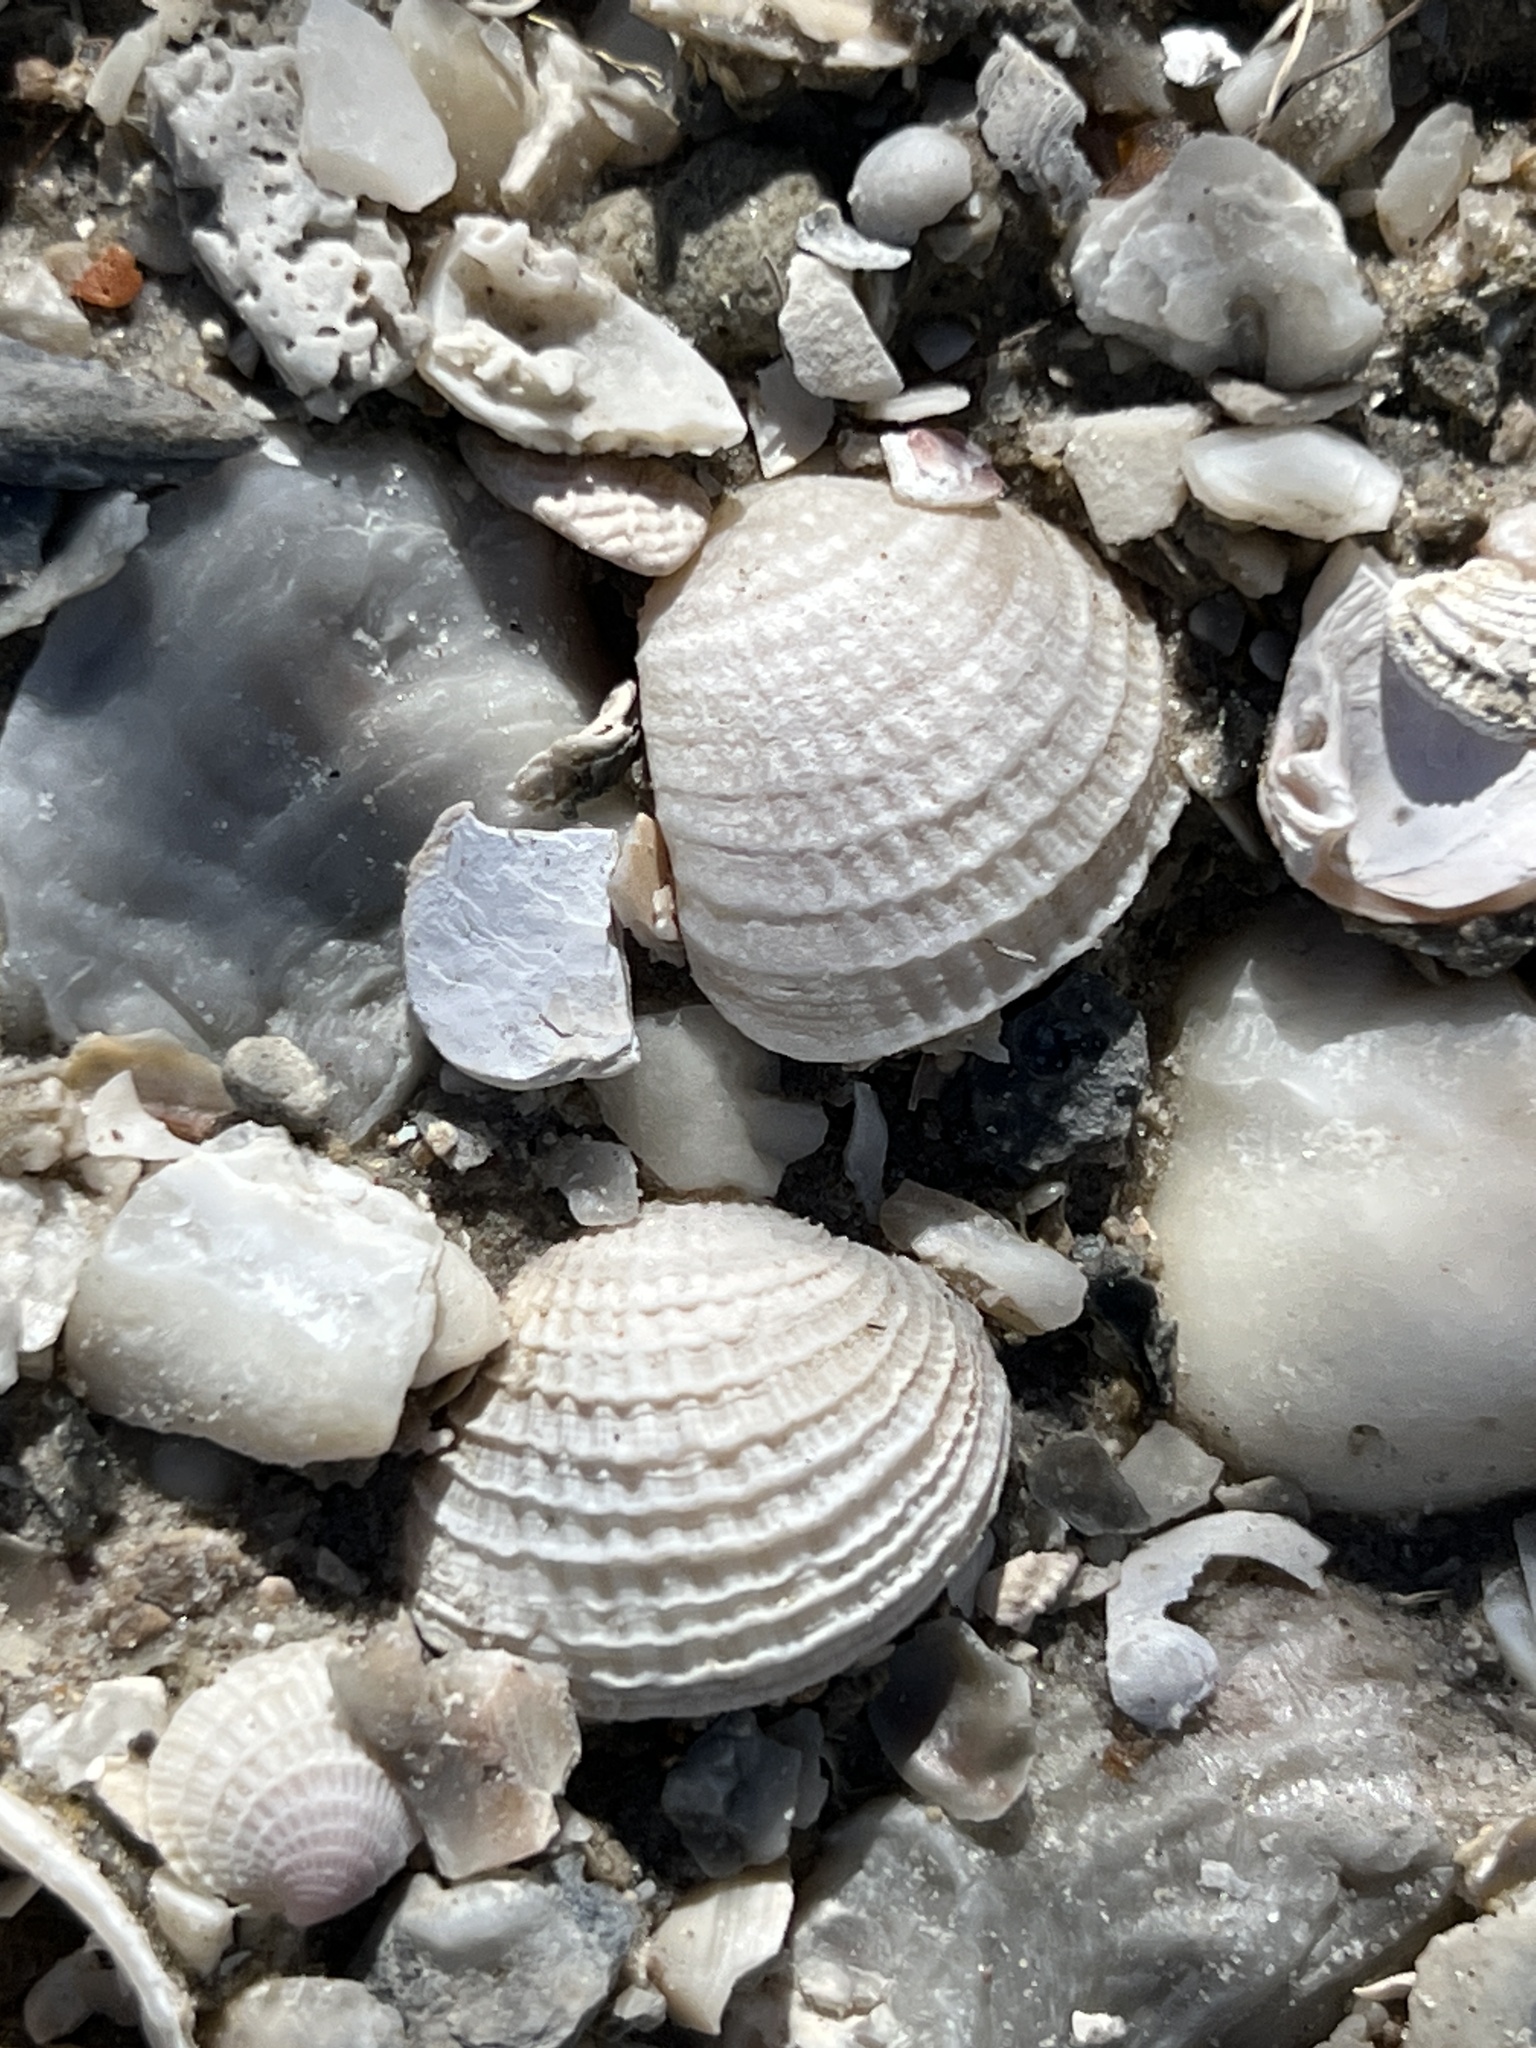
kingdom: Animalia
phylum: Mollusca
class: Bivalvia
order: Venerida
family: Veneridae
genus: Chione
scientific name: Chione elevata
